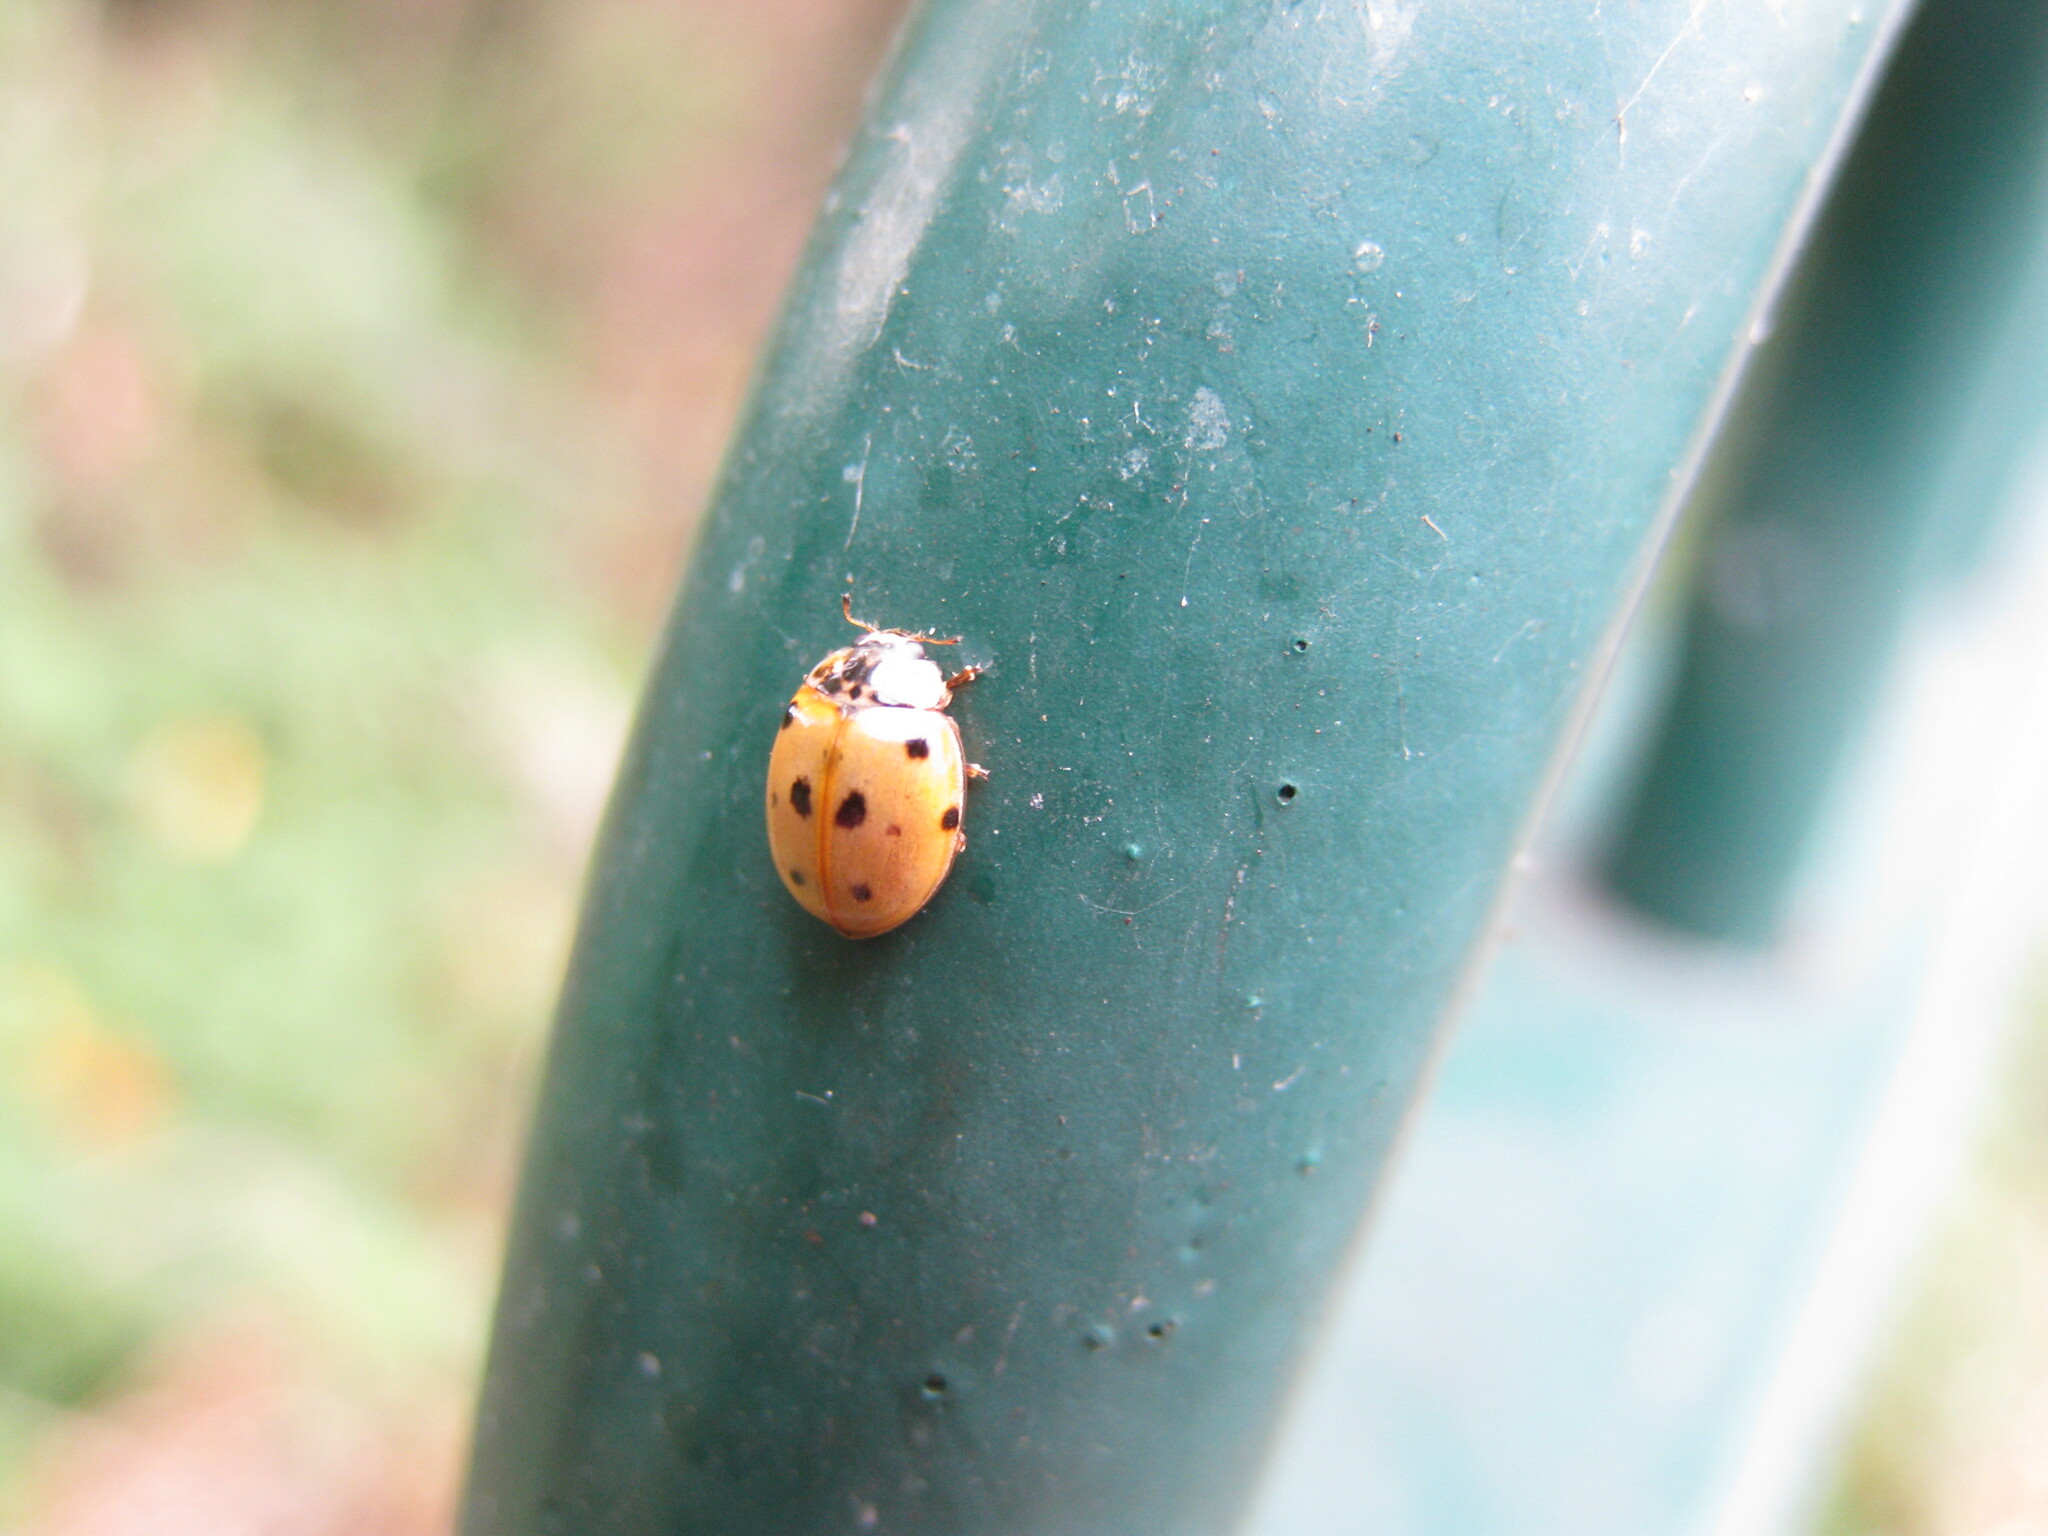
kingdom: Animalia
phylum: Arthropoda
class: Insecta
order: Coleoptera
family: Coccinellidae
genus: Adalia
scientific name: Adalia decempunctata
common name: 10-spot ladybird
